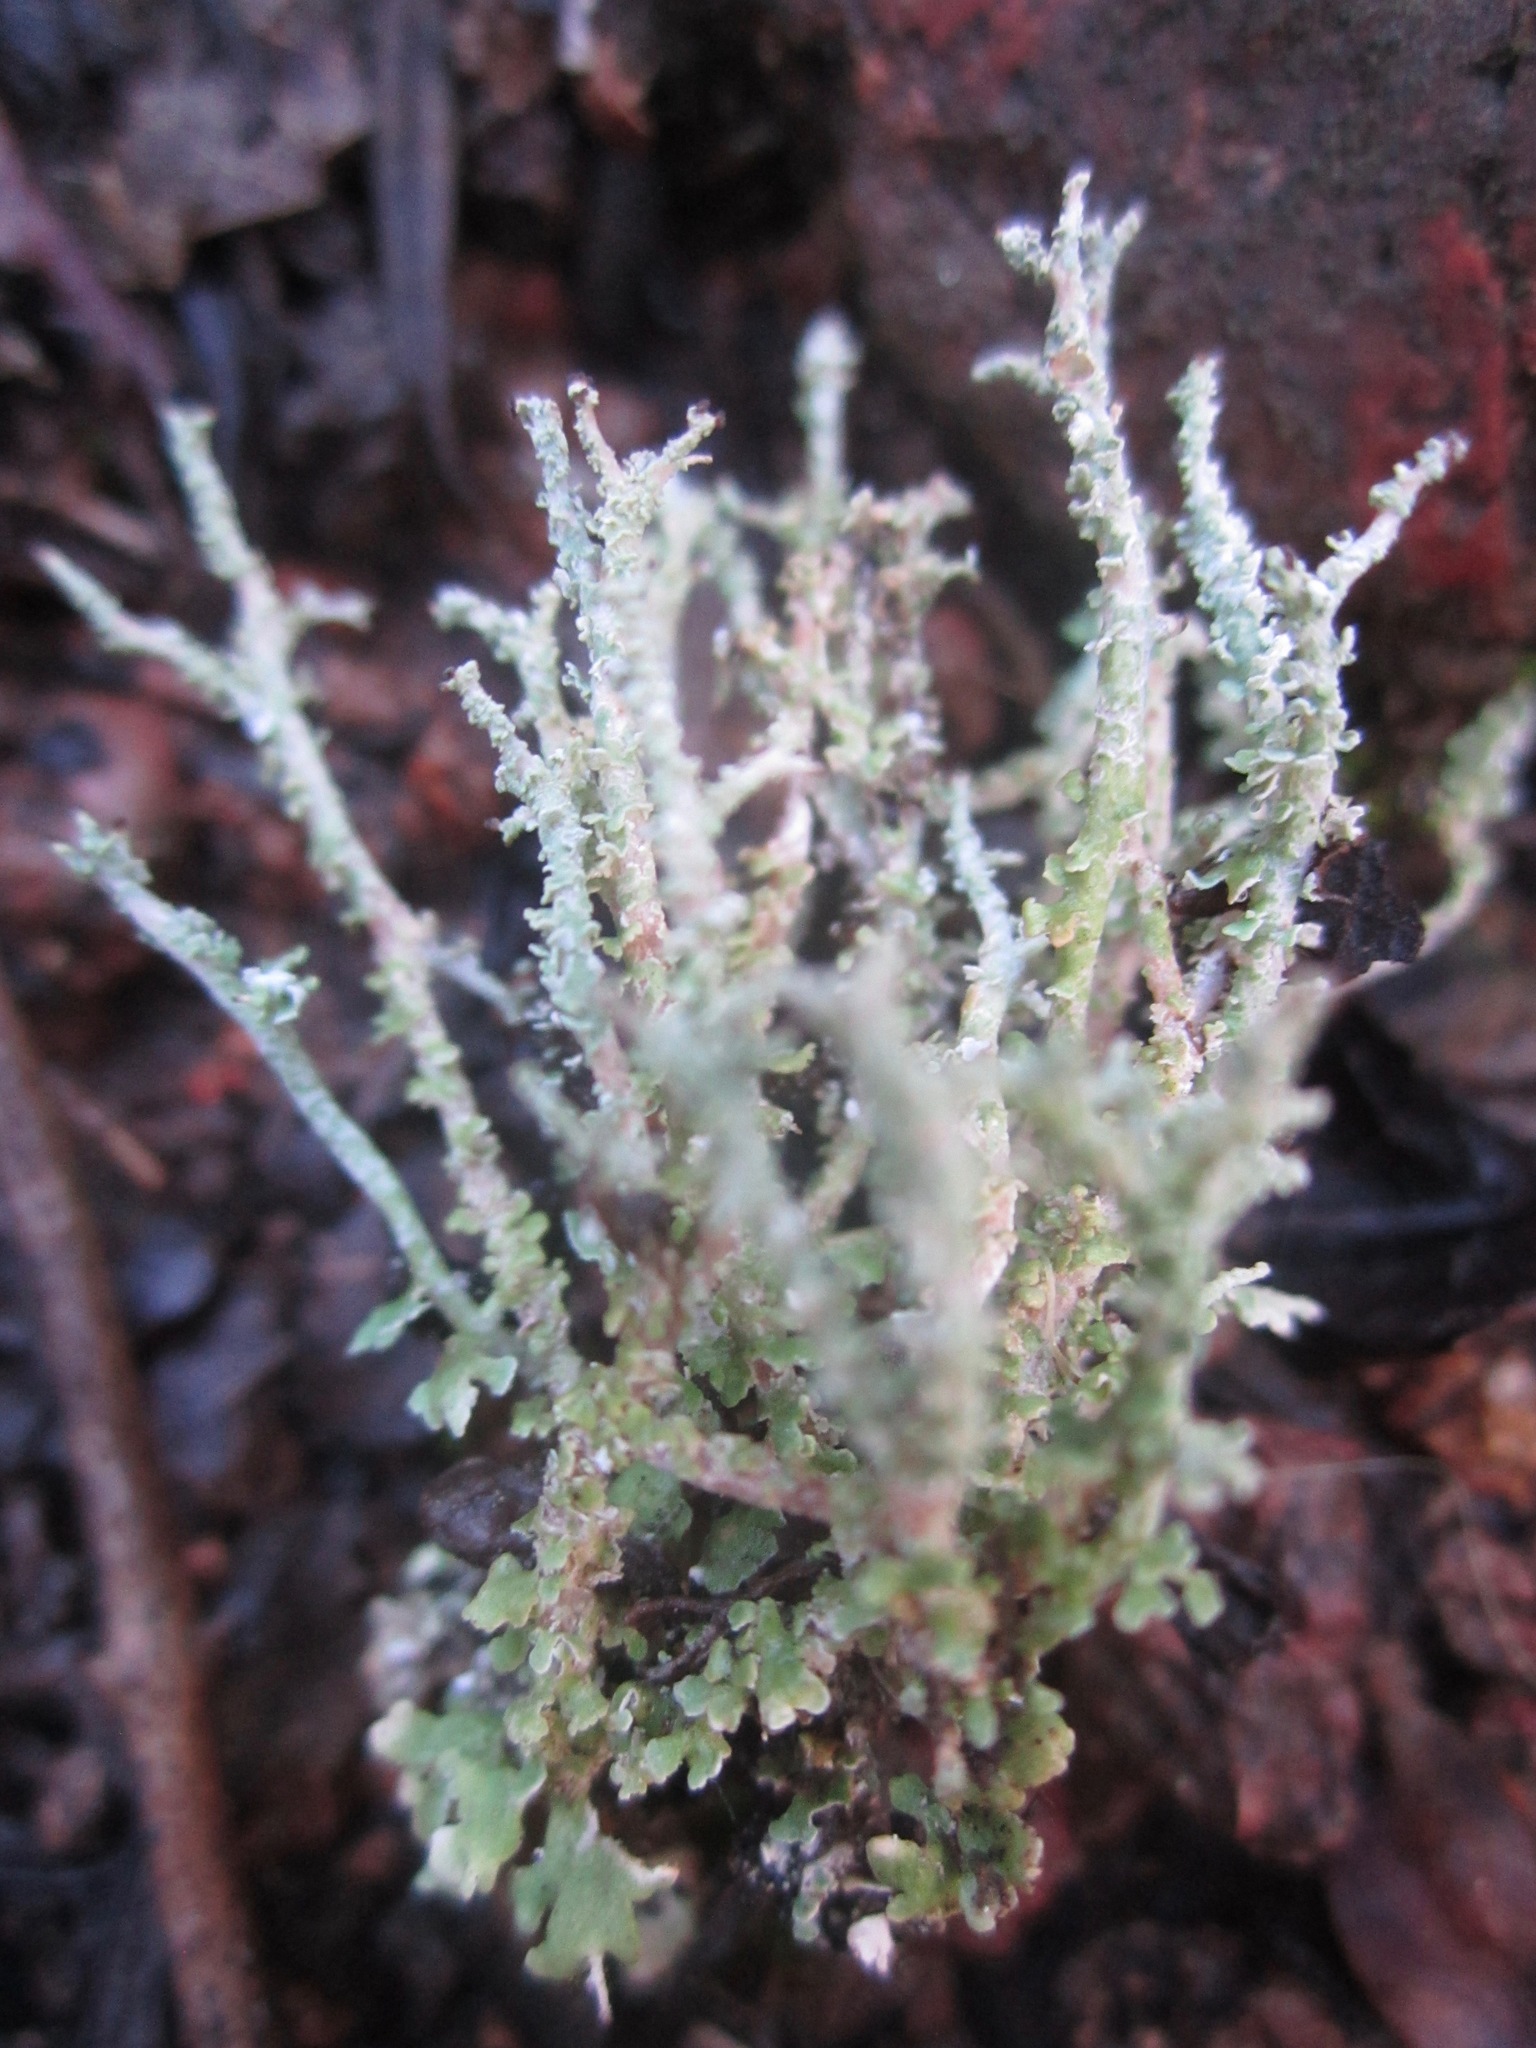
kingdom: Fungi
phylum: Ascomycota
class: Lecanoromycetes
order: Lecanorales
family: Cladoniaceae
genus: Cladonia
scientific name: Cladonia scabriuscula
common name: Mealy forked clad lichen
